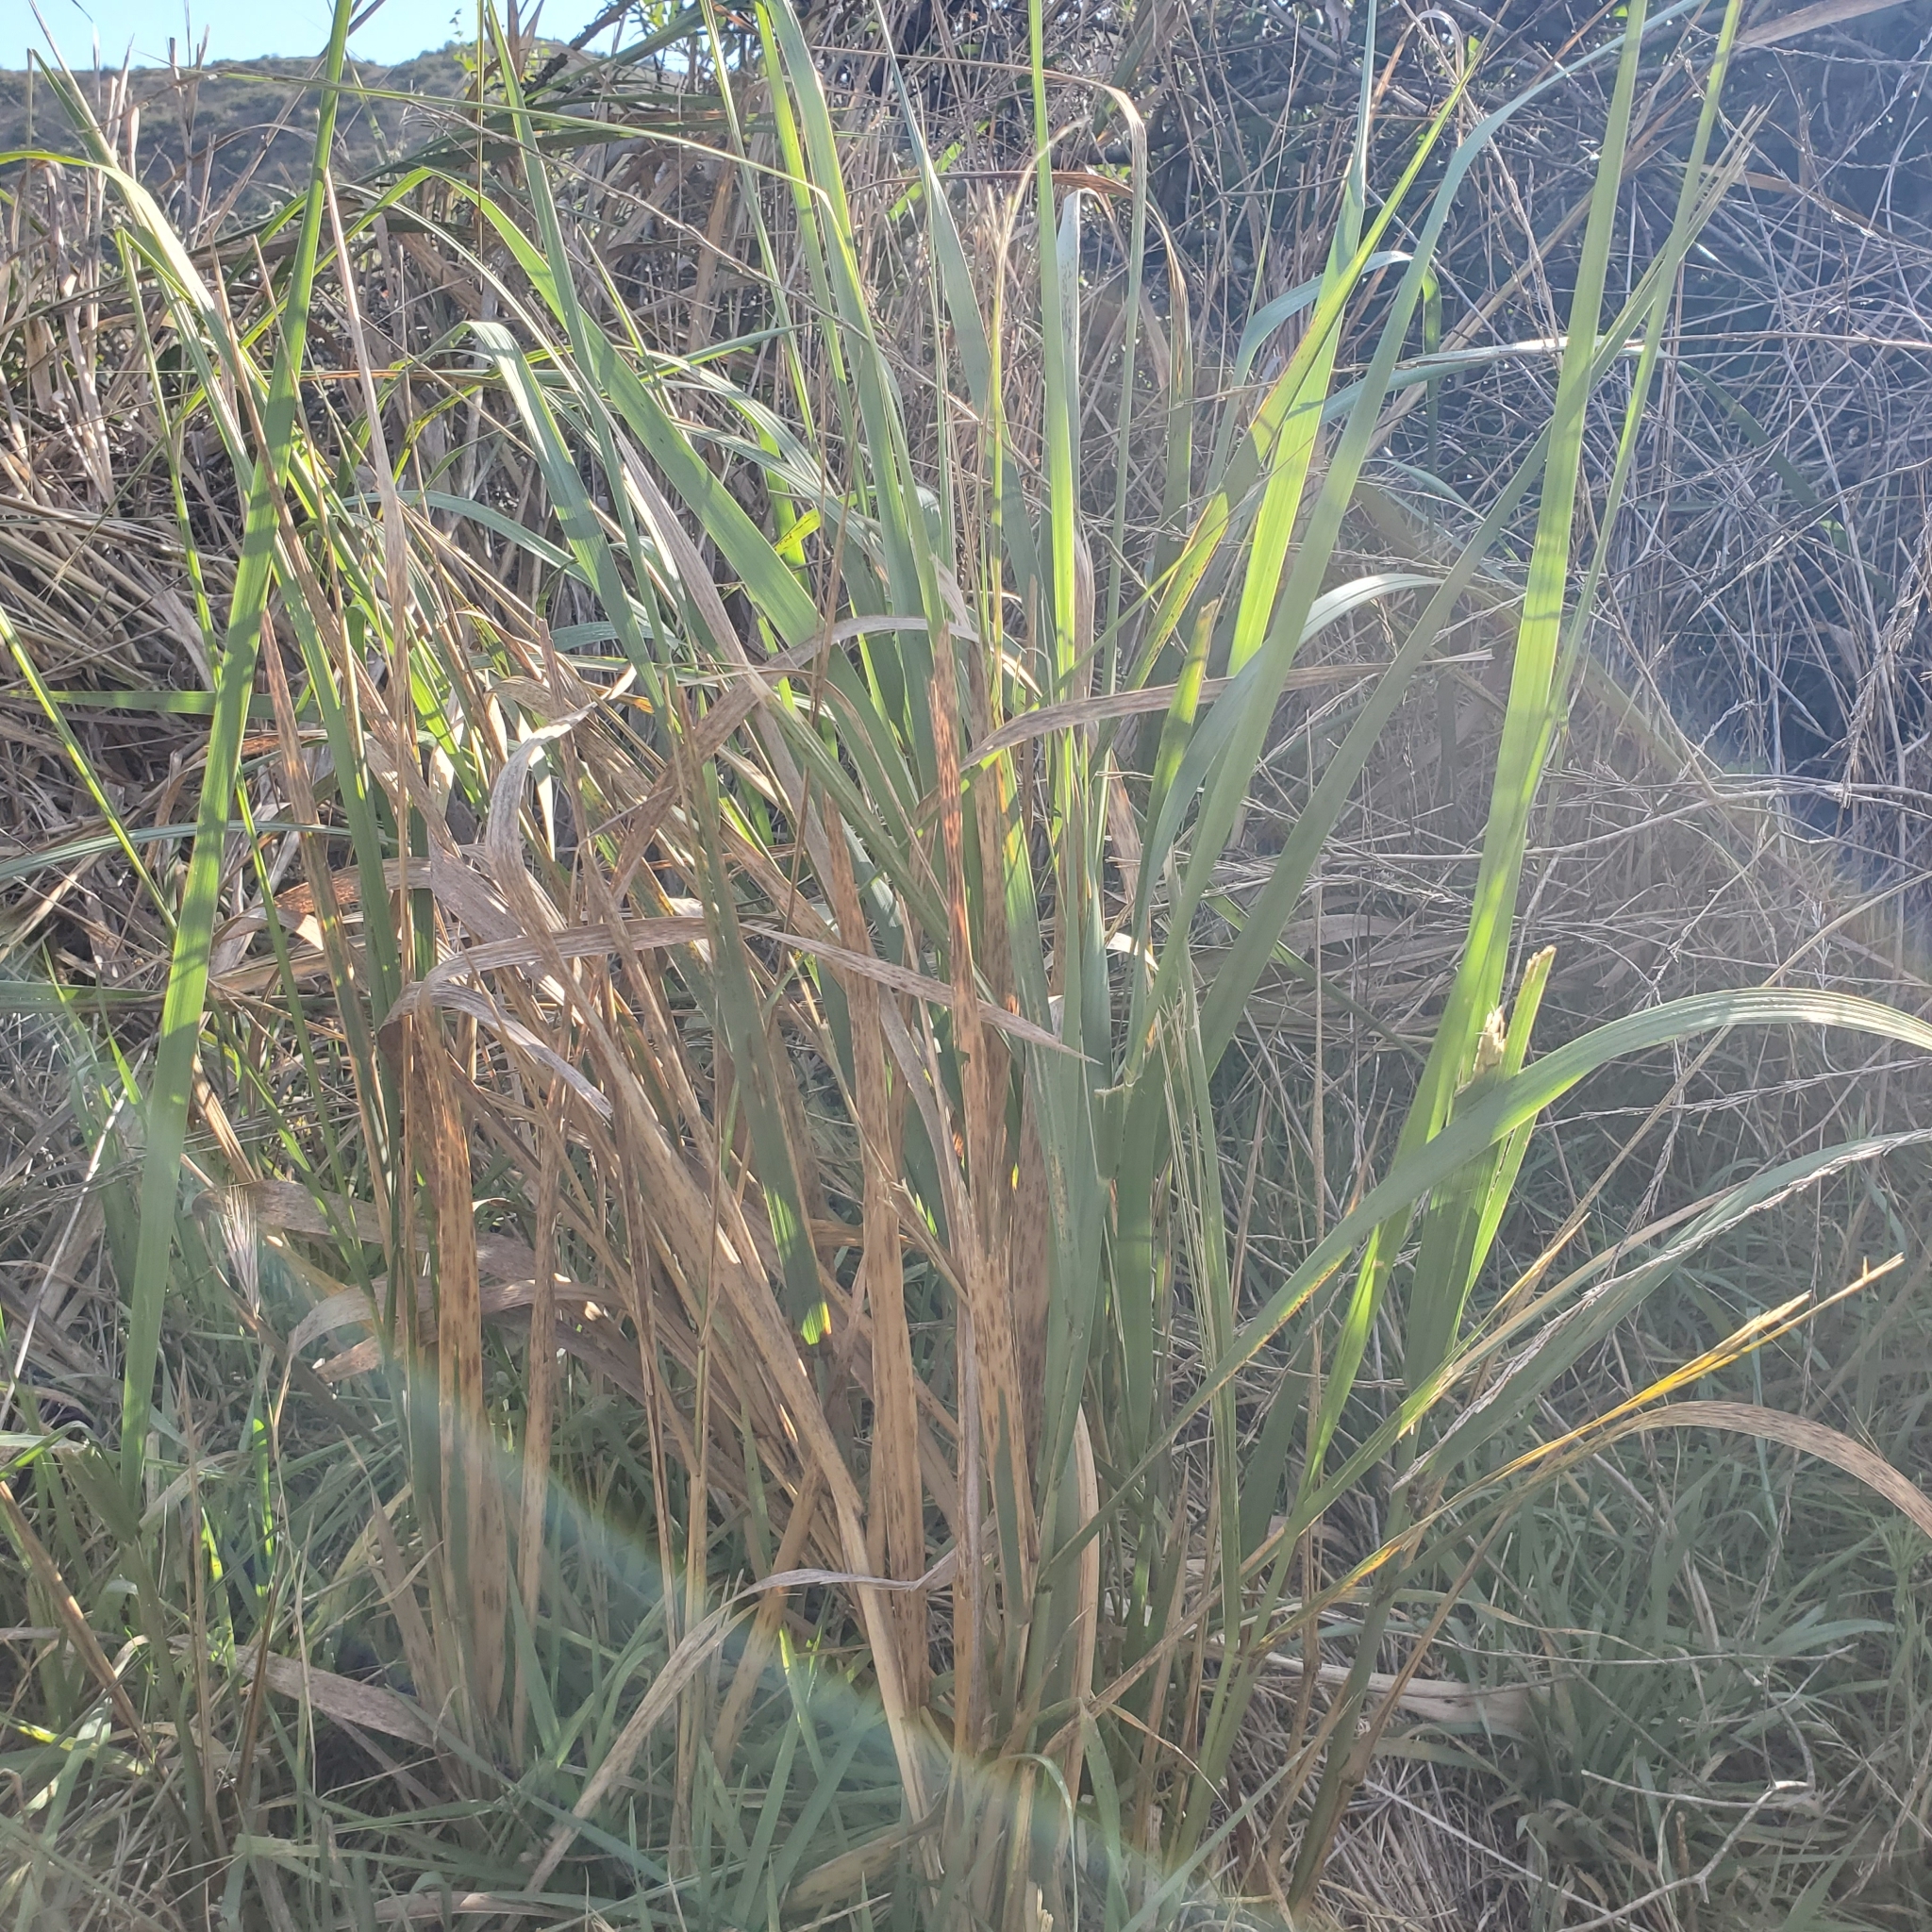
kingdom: Plantae
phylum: Tracheophyta
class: Liliopsida
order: Poales
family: Poaceae
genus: Leymus
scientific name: Leymus condensatus
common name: Giant wild rye
